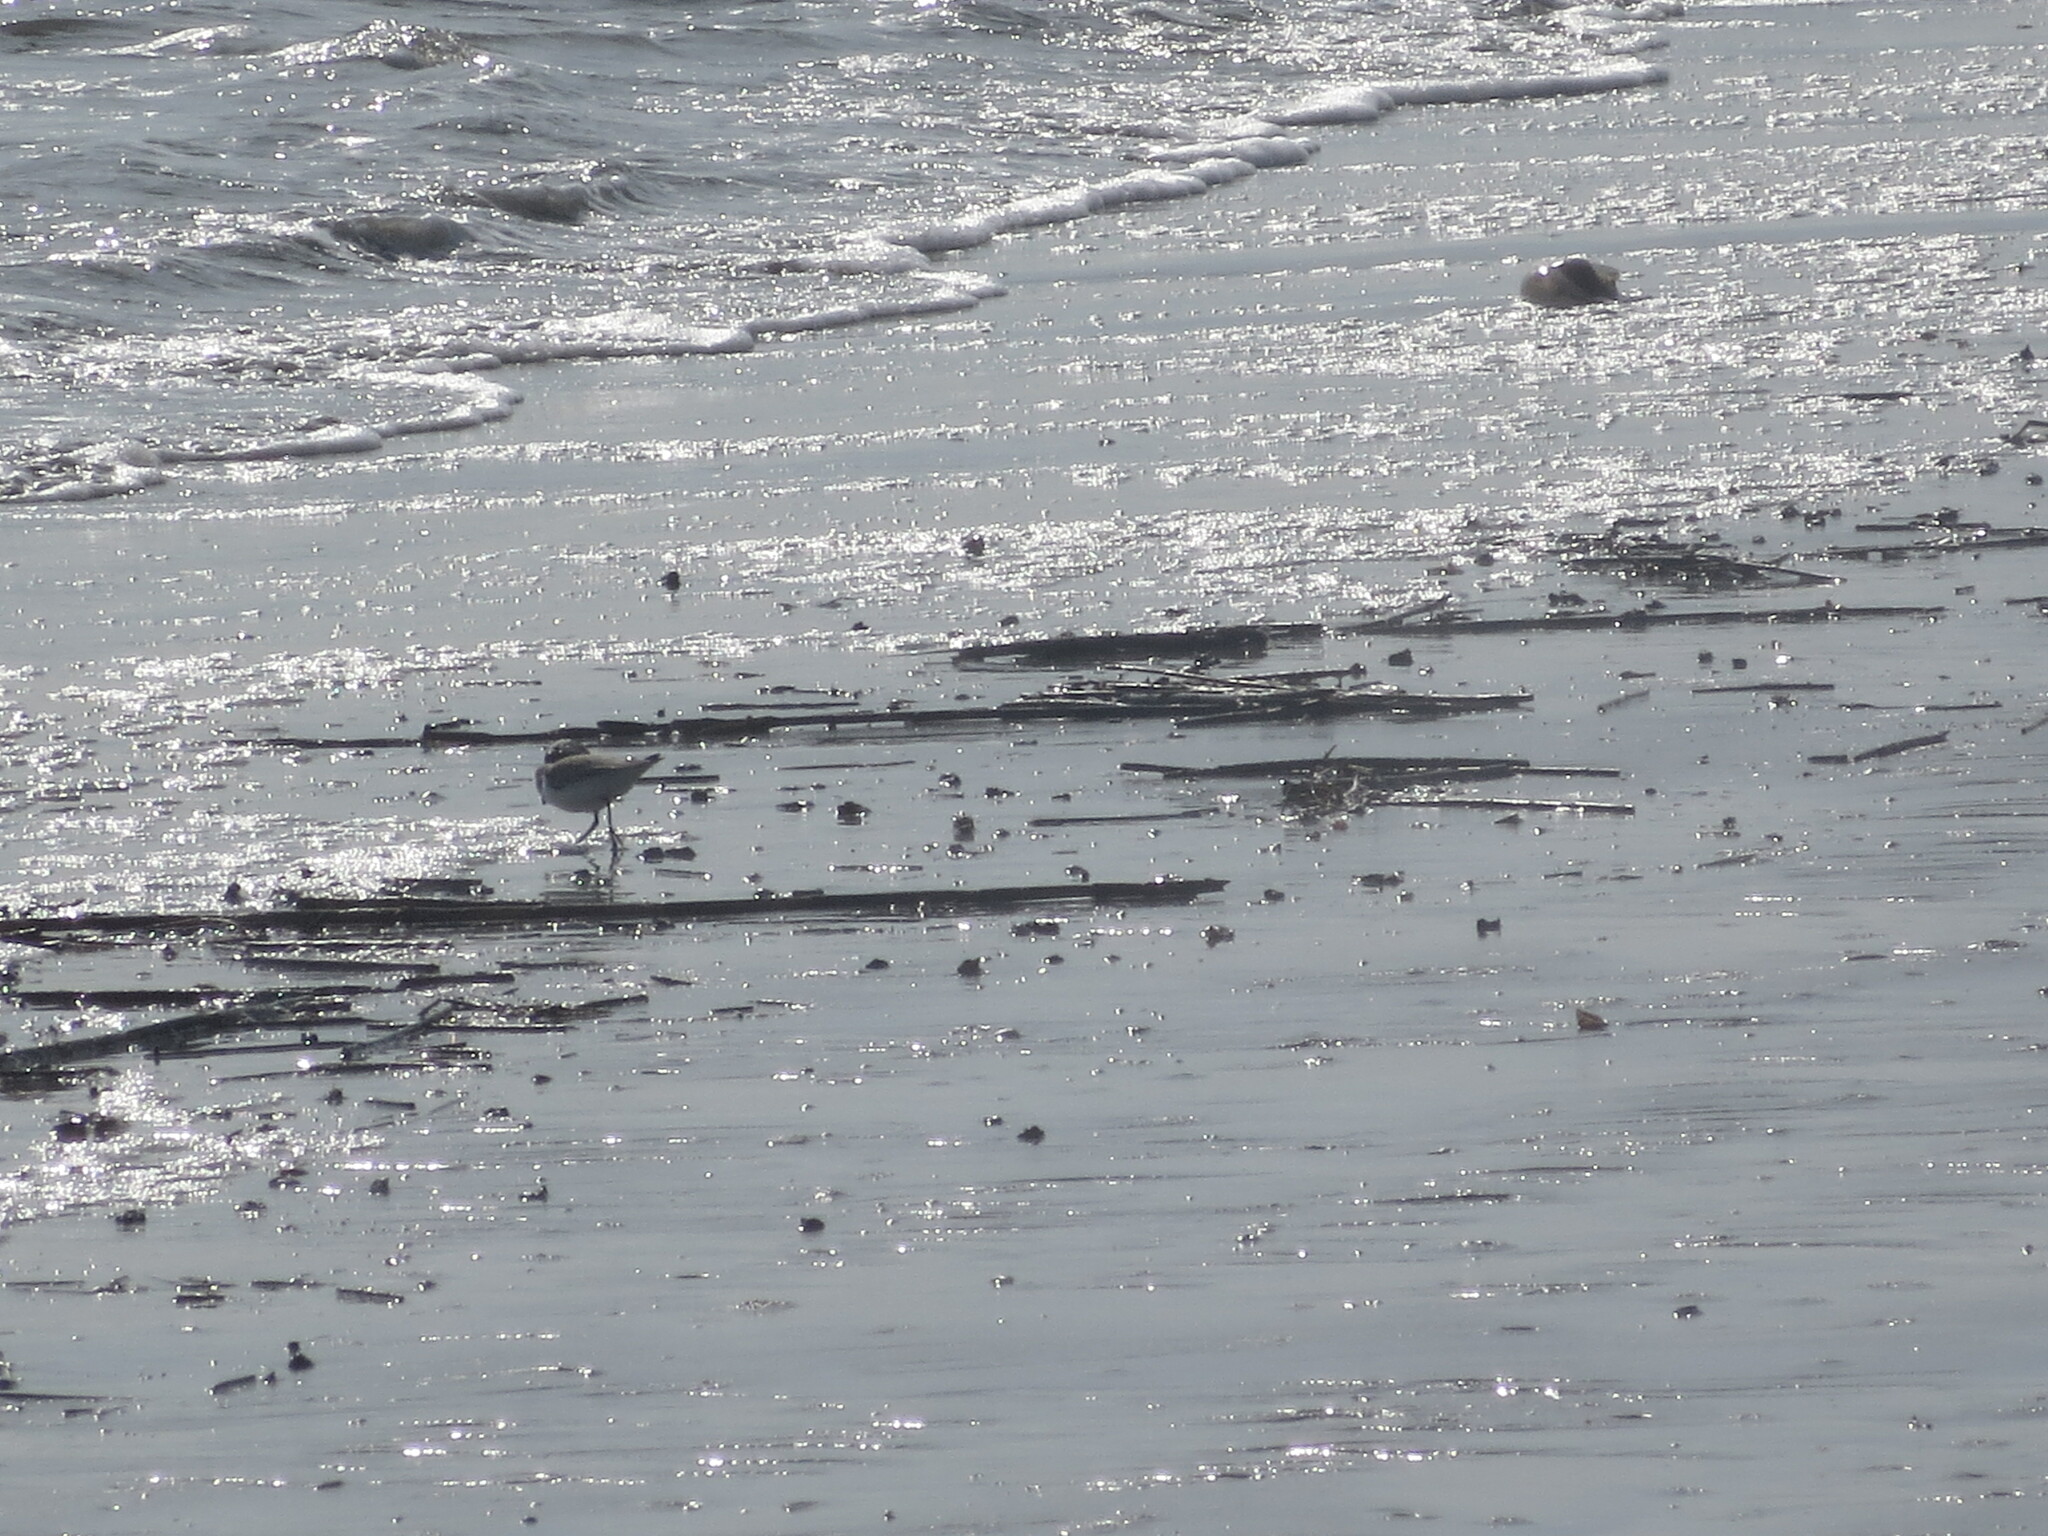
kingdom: Animalia
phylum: Chordata
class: Aves
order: Charadriiformes
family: Scolopacidae
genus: Calidris
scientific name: Calidris alba
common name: Sanderling
